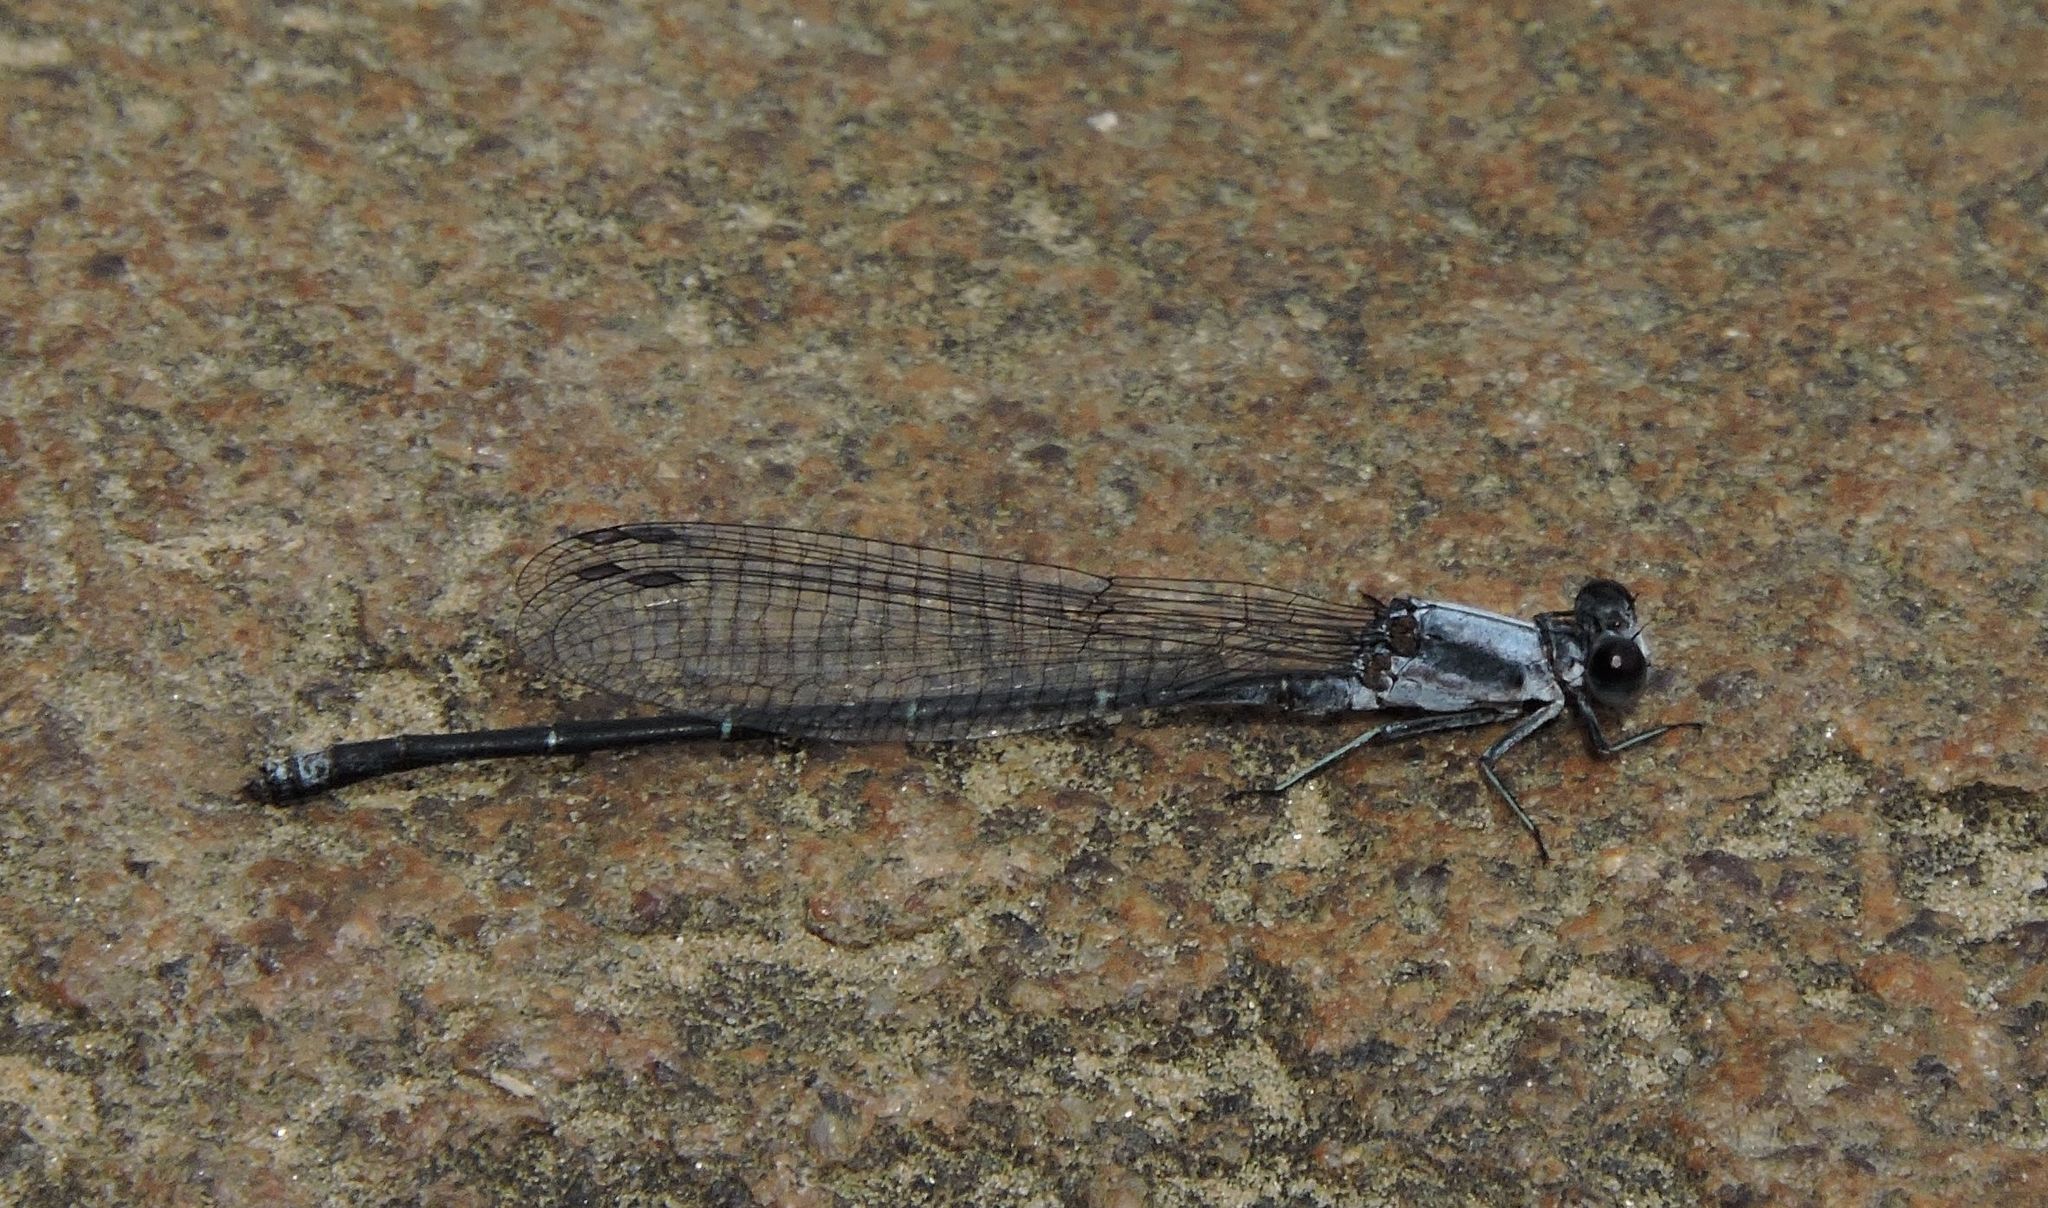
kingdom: Animalia
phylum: Arthropoda
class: Insecta
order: Odonata
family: Coenagrionidae
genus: Argia
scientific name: Argia moesta
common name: Powdered dancer
